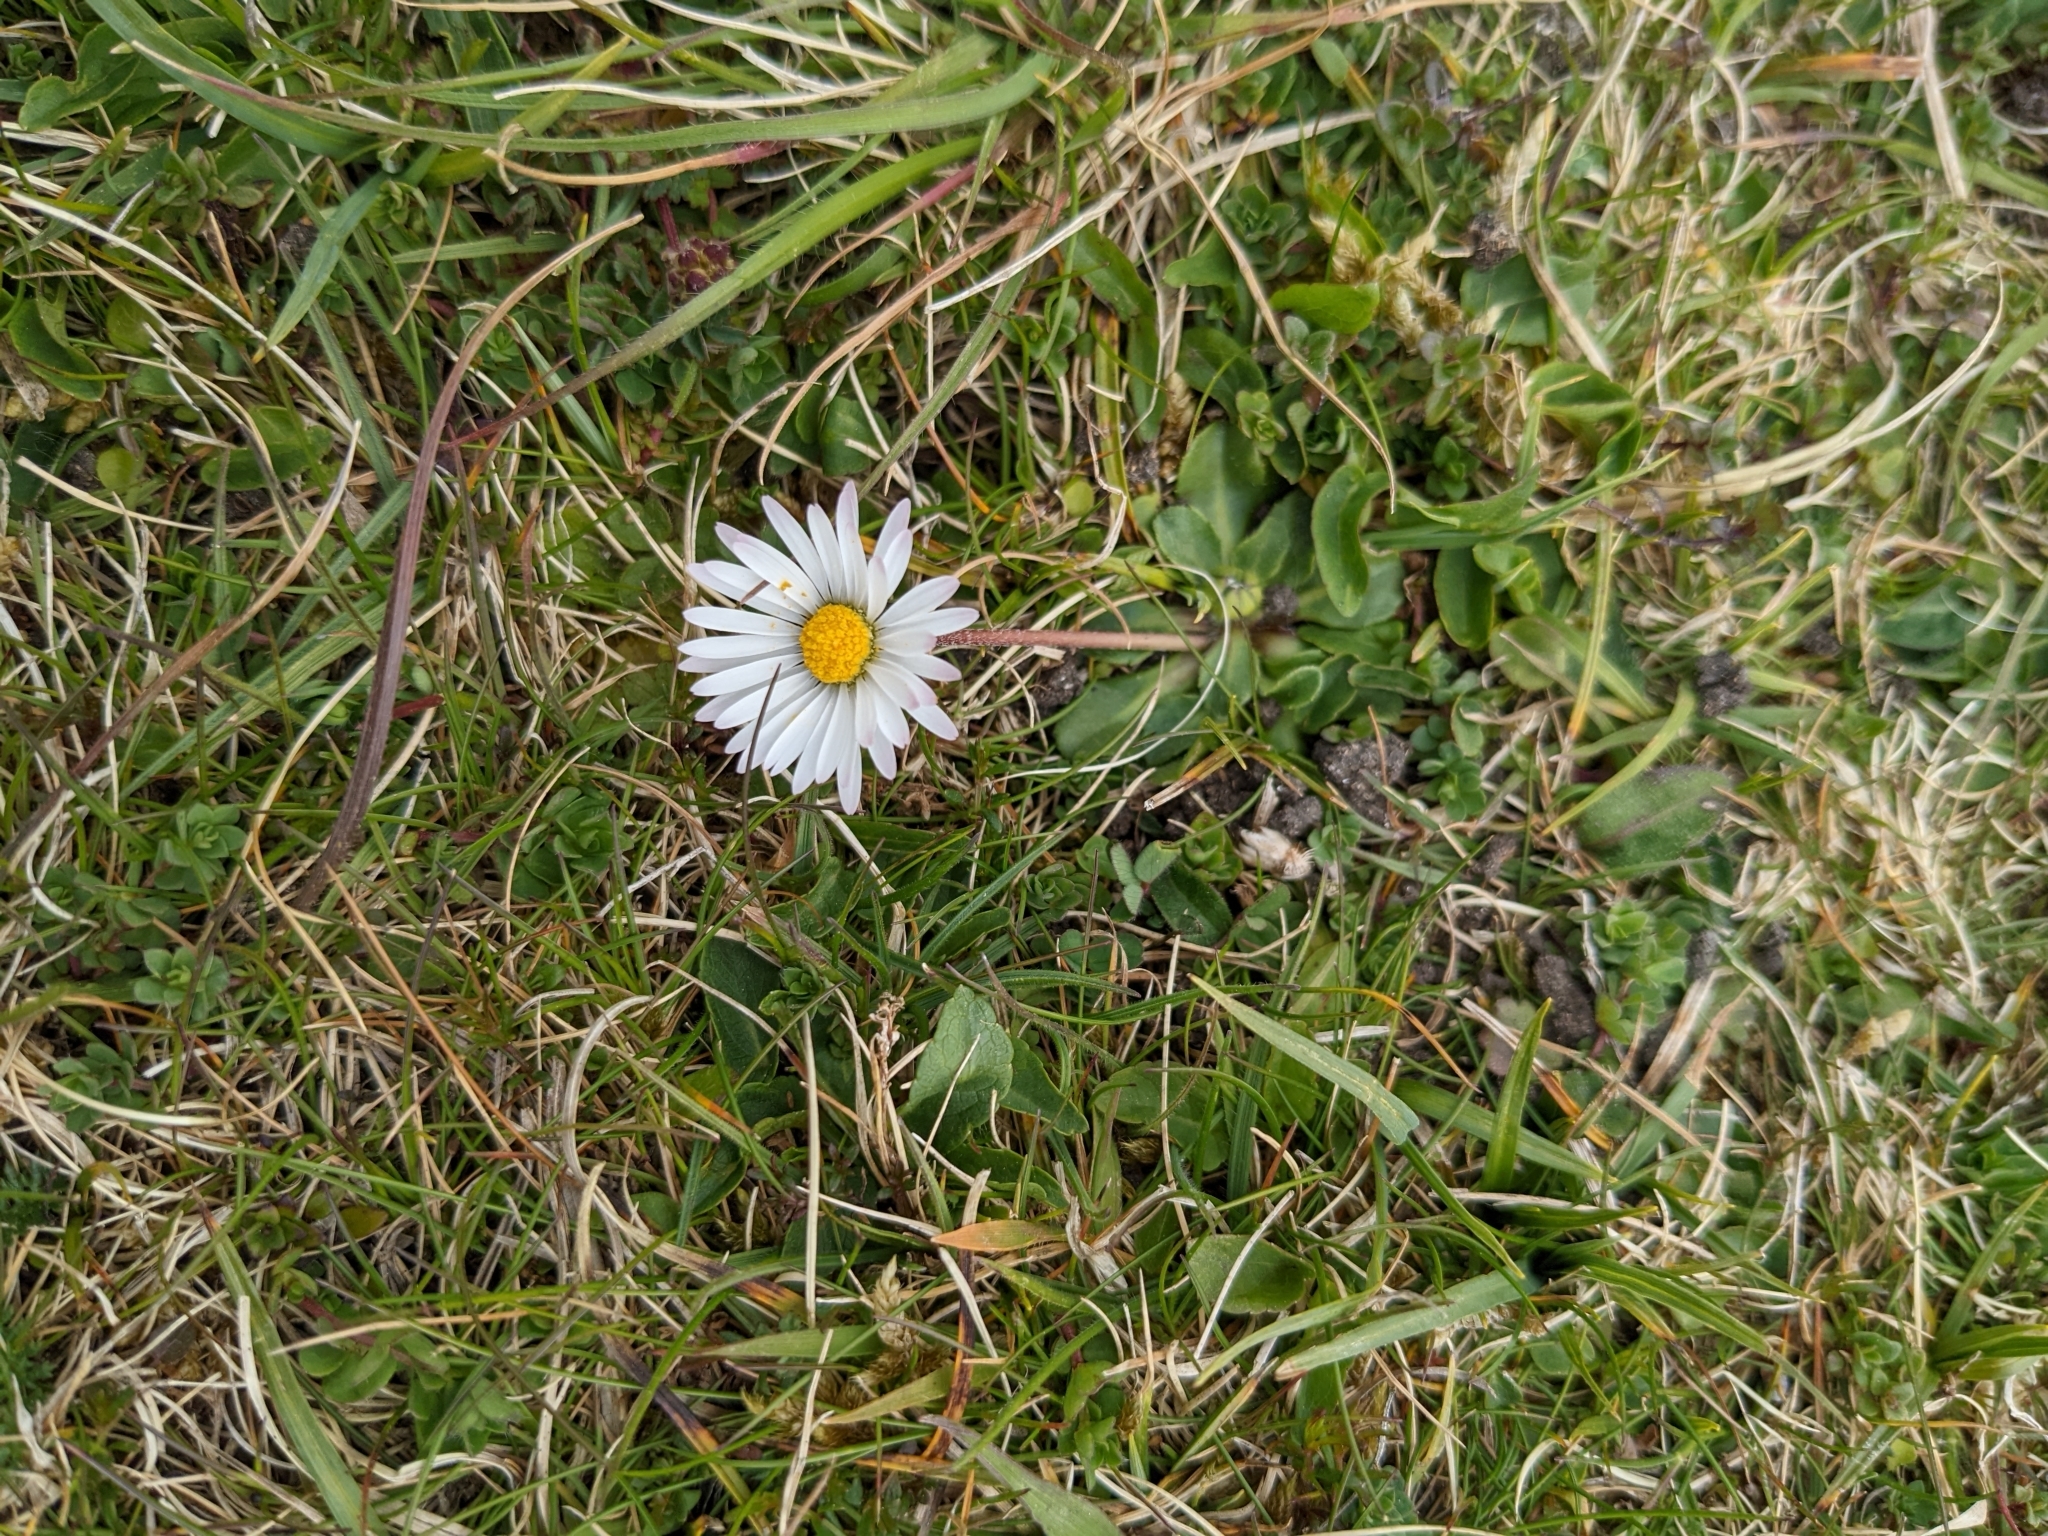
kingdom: Plantae
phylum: Tracheophyta
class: Magnoliopsida
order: Asterales
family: Asteraceae
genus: Bellis
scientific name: Bellis perennis
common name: Lawndaisy
